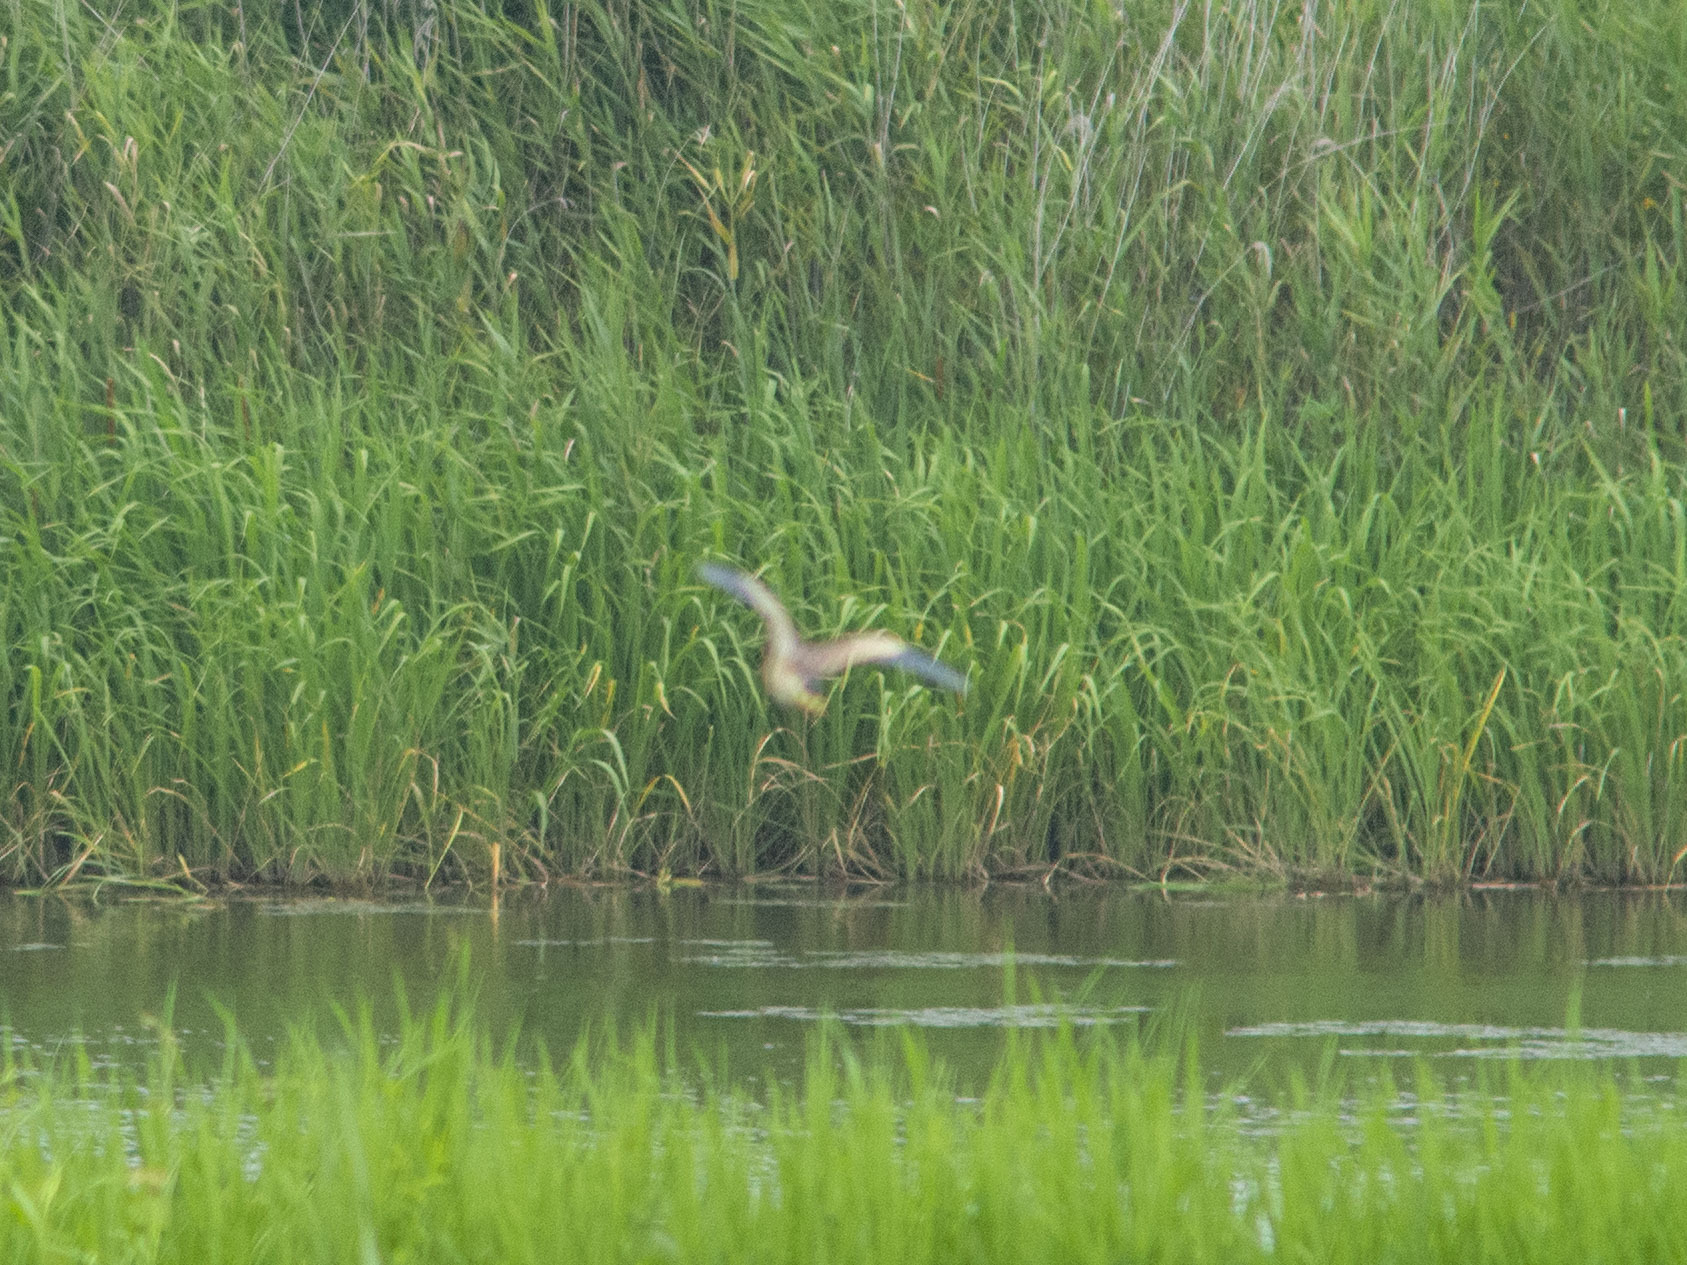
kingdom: Animalia
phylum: Chordata
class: Aves
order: Pelecaniformes
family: Ardeidae
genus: Ixobrychus
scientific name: Ixobrychus sinensis
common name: Yellow bittern
